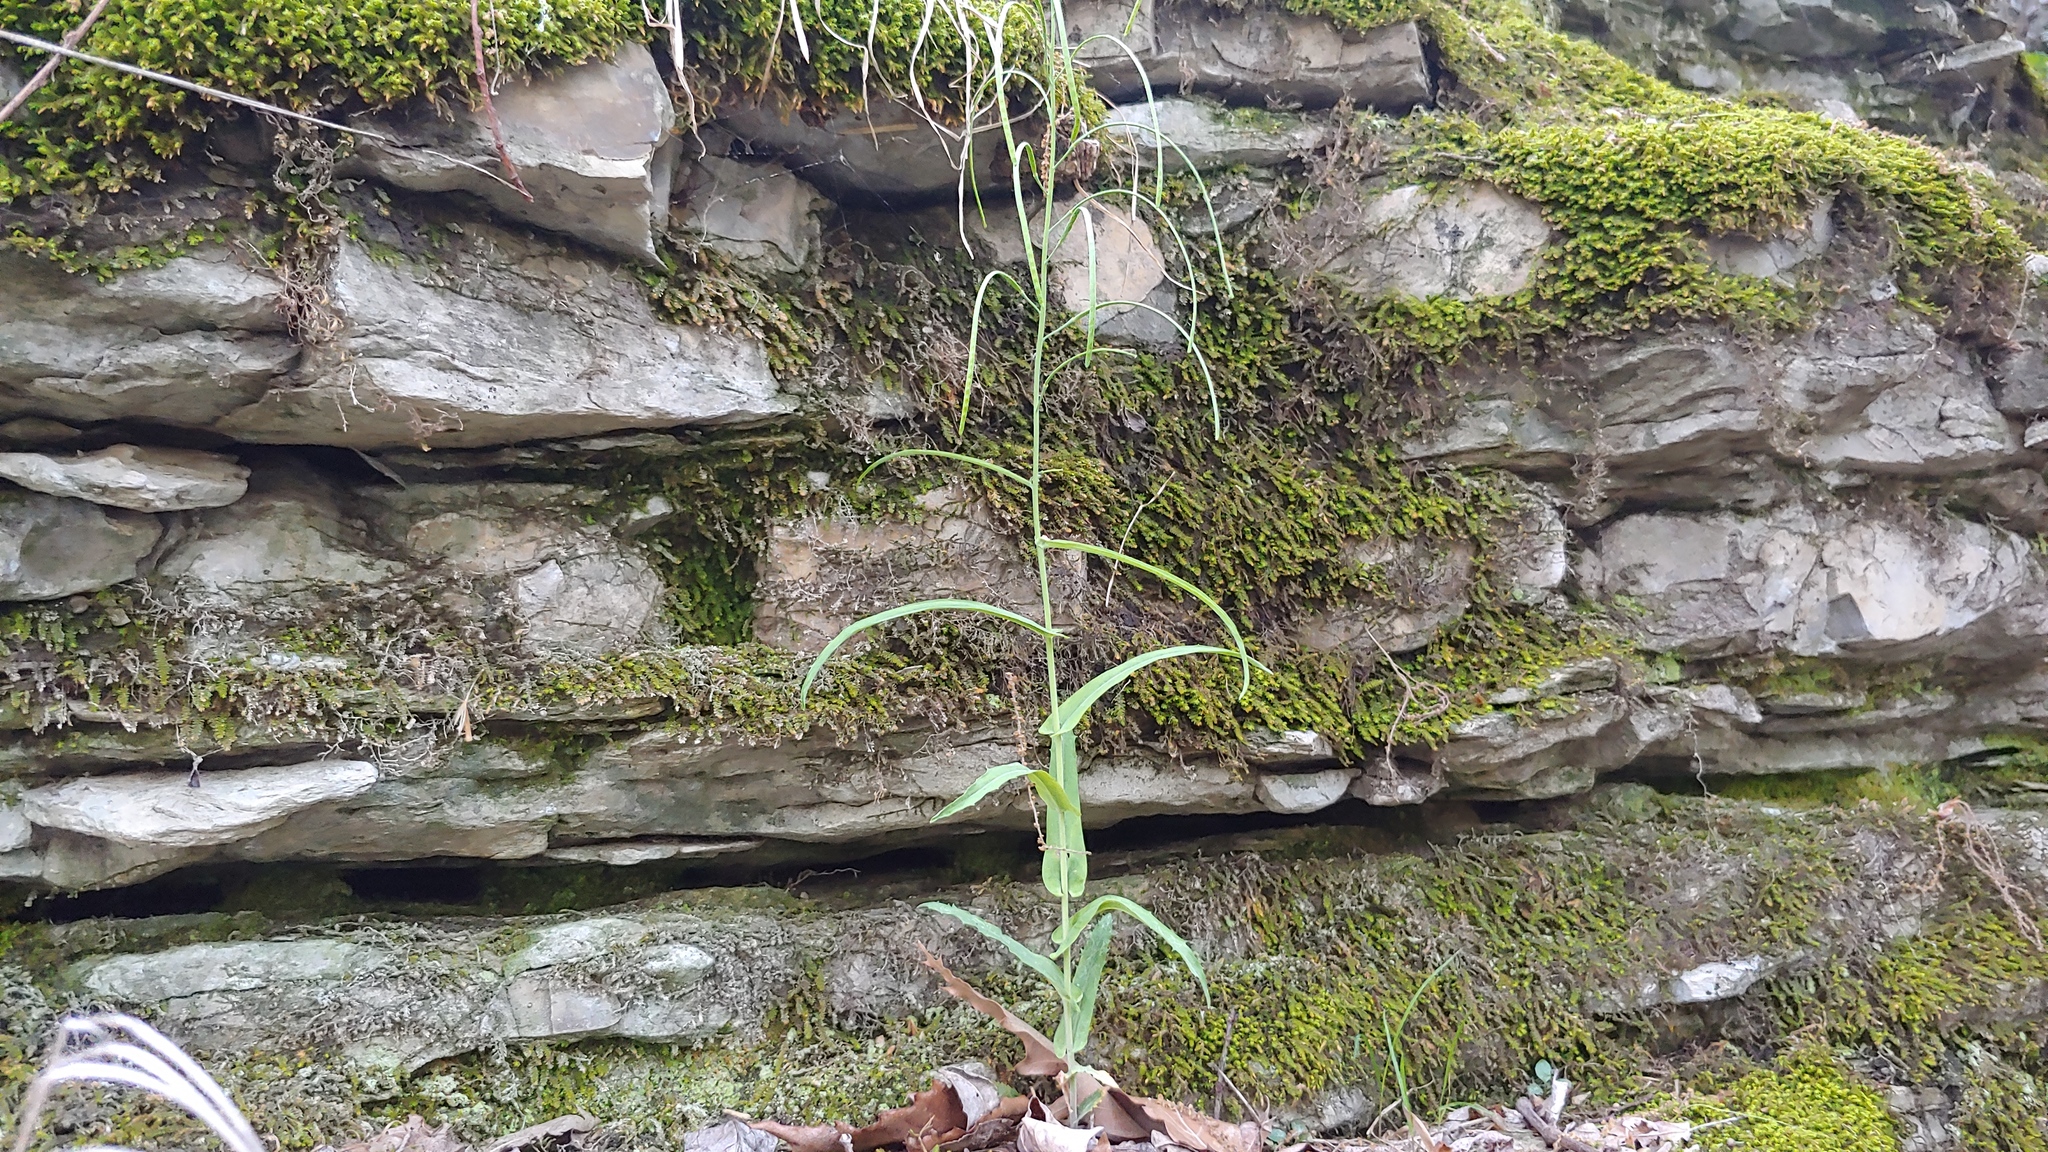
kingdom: Plantae
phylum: Tracheophyta
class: Magnoliopsida
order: Brassicales
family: Brassicaceae
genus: Borodinia
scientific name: Borodinia laevigata
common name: Smooth rockcress
